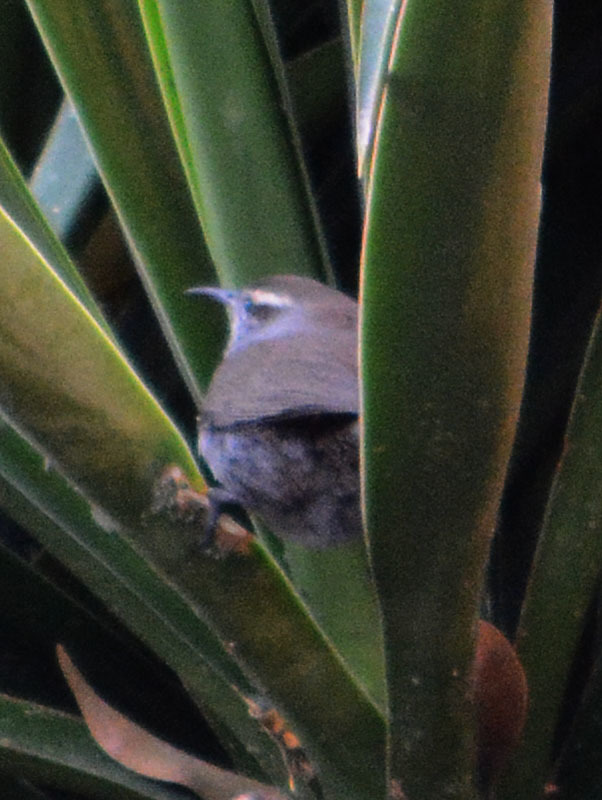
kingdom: Animalia
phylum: Chordata
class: Aves
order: Passeriformes
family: Troglodytidae
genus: Thryomanes
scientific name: Thryomanes bewickii
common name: Bewick's wren
